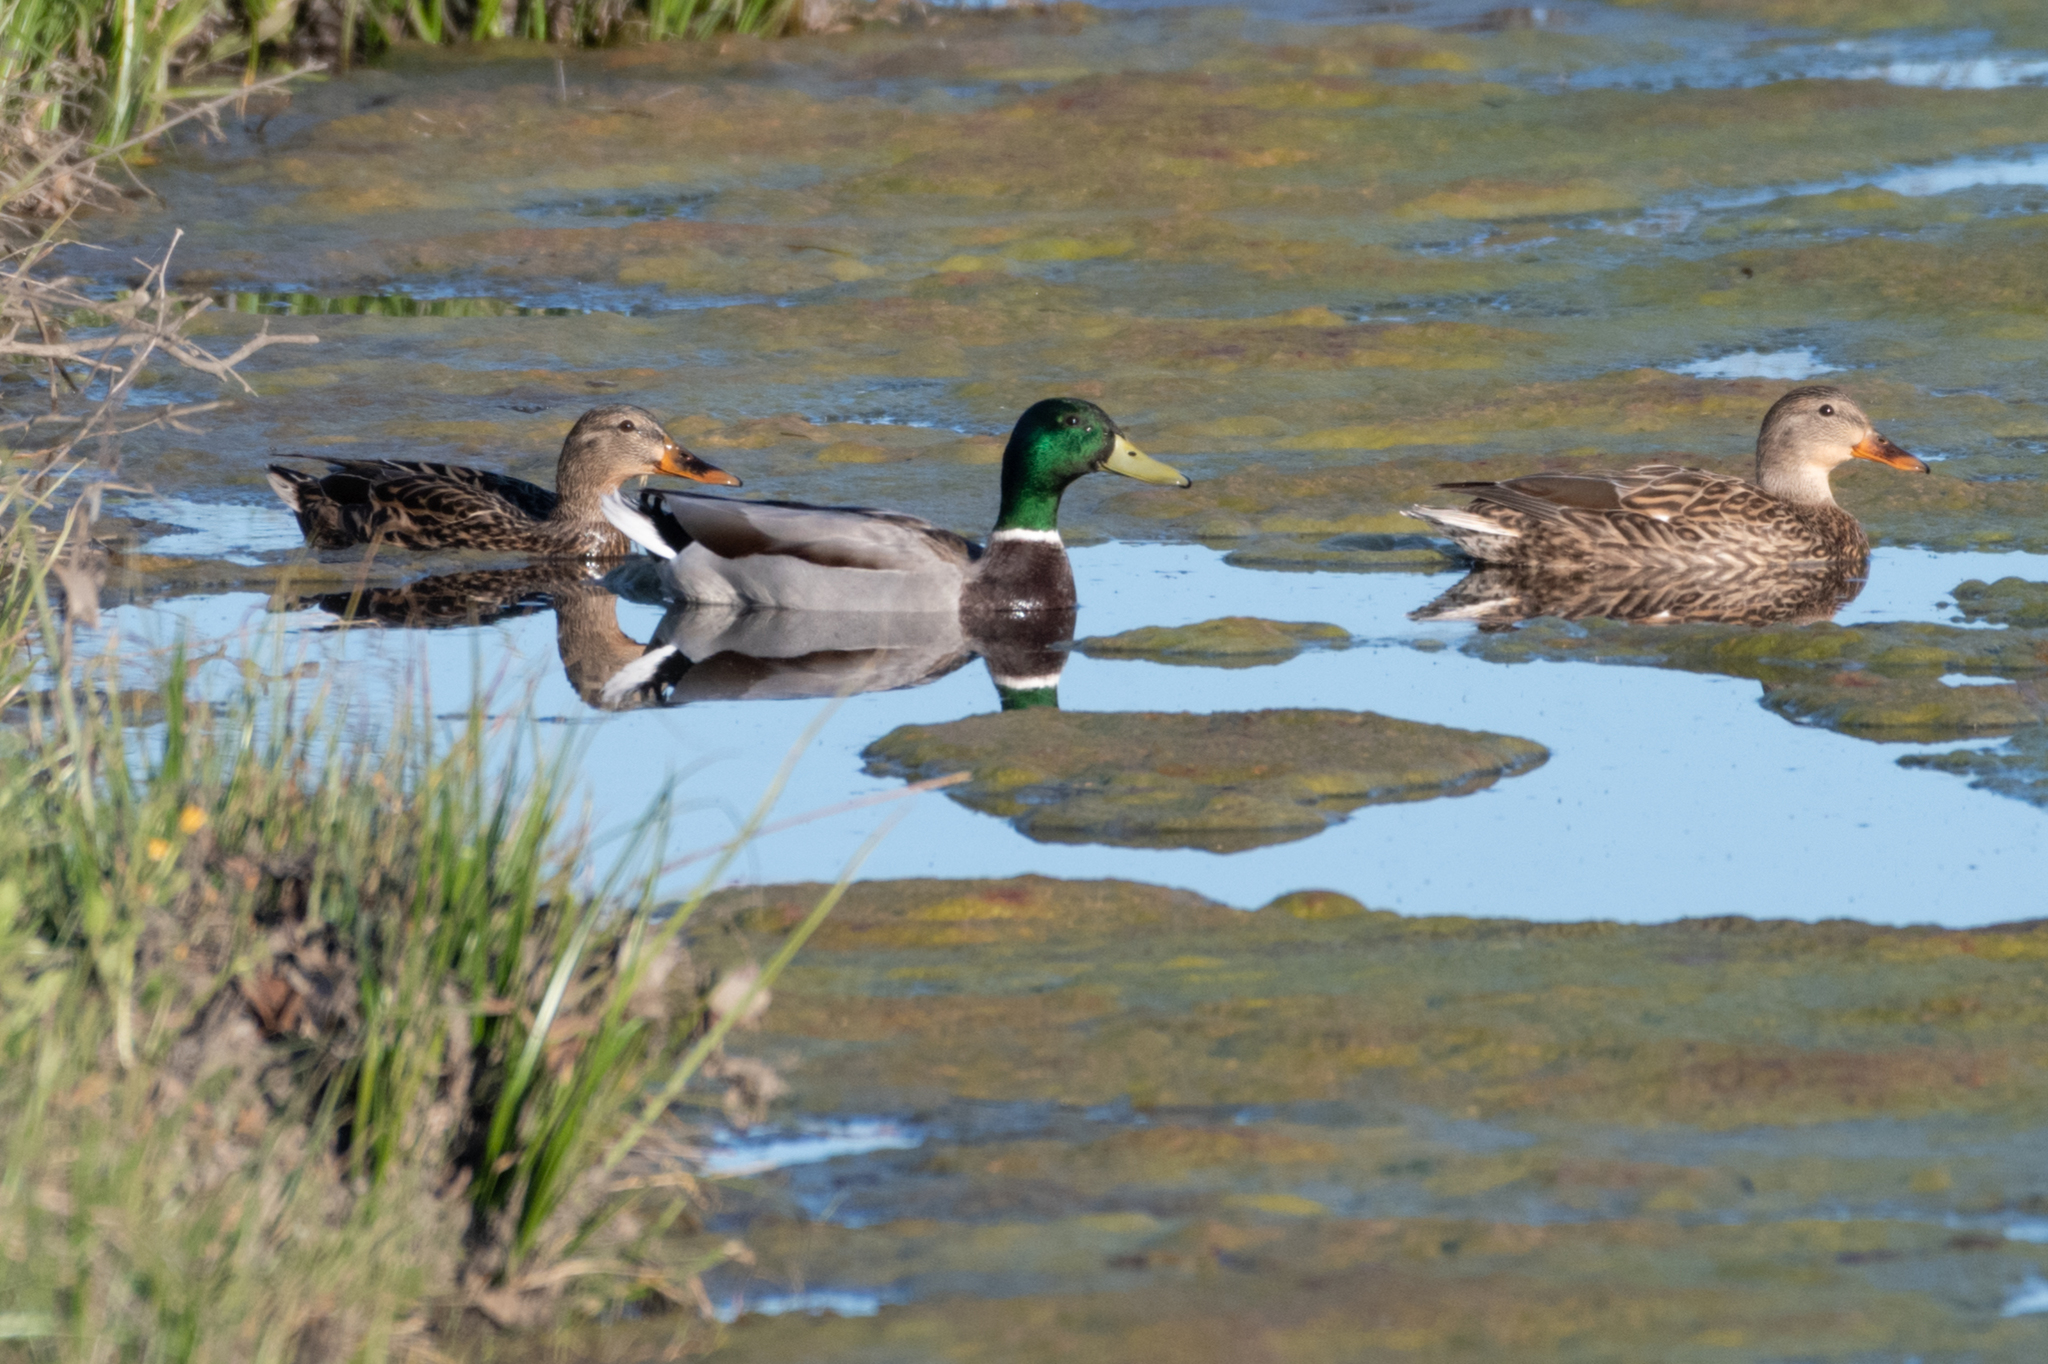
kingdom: Animalia
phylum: Chordata
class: Aves
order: Anseriformes
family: Anatidae
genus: Anas
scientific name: Anas platyrhynchos
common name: Mallard
